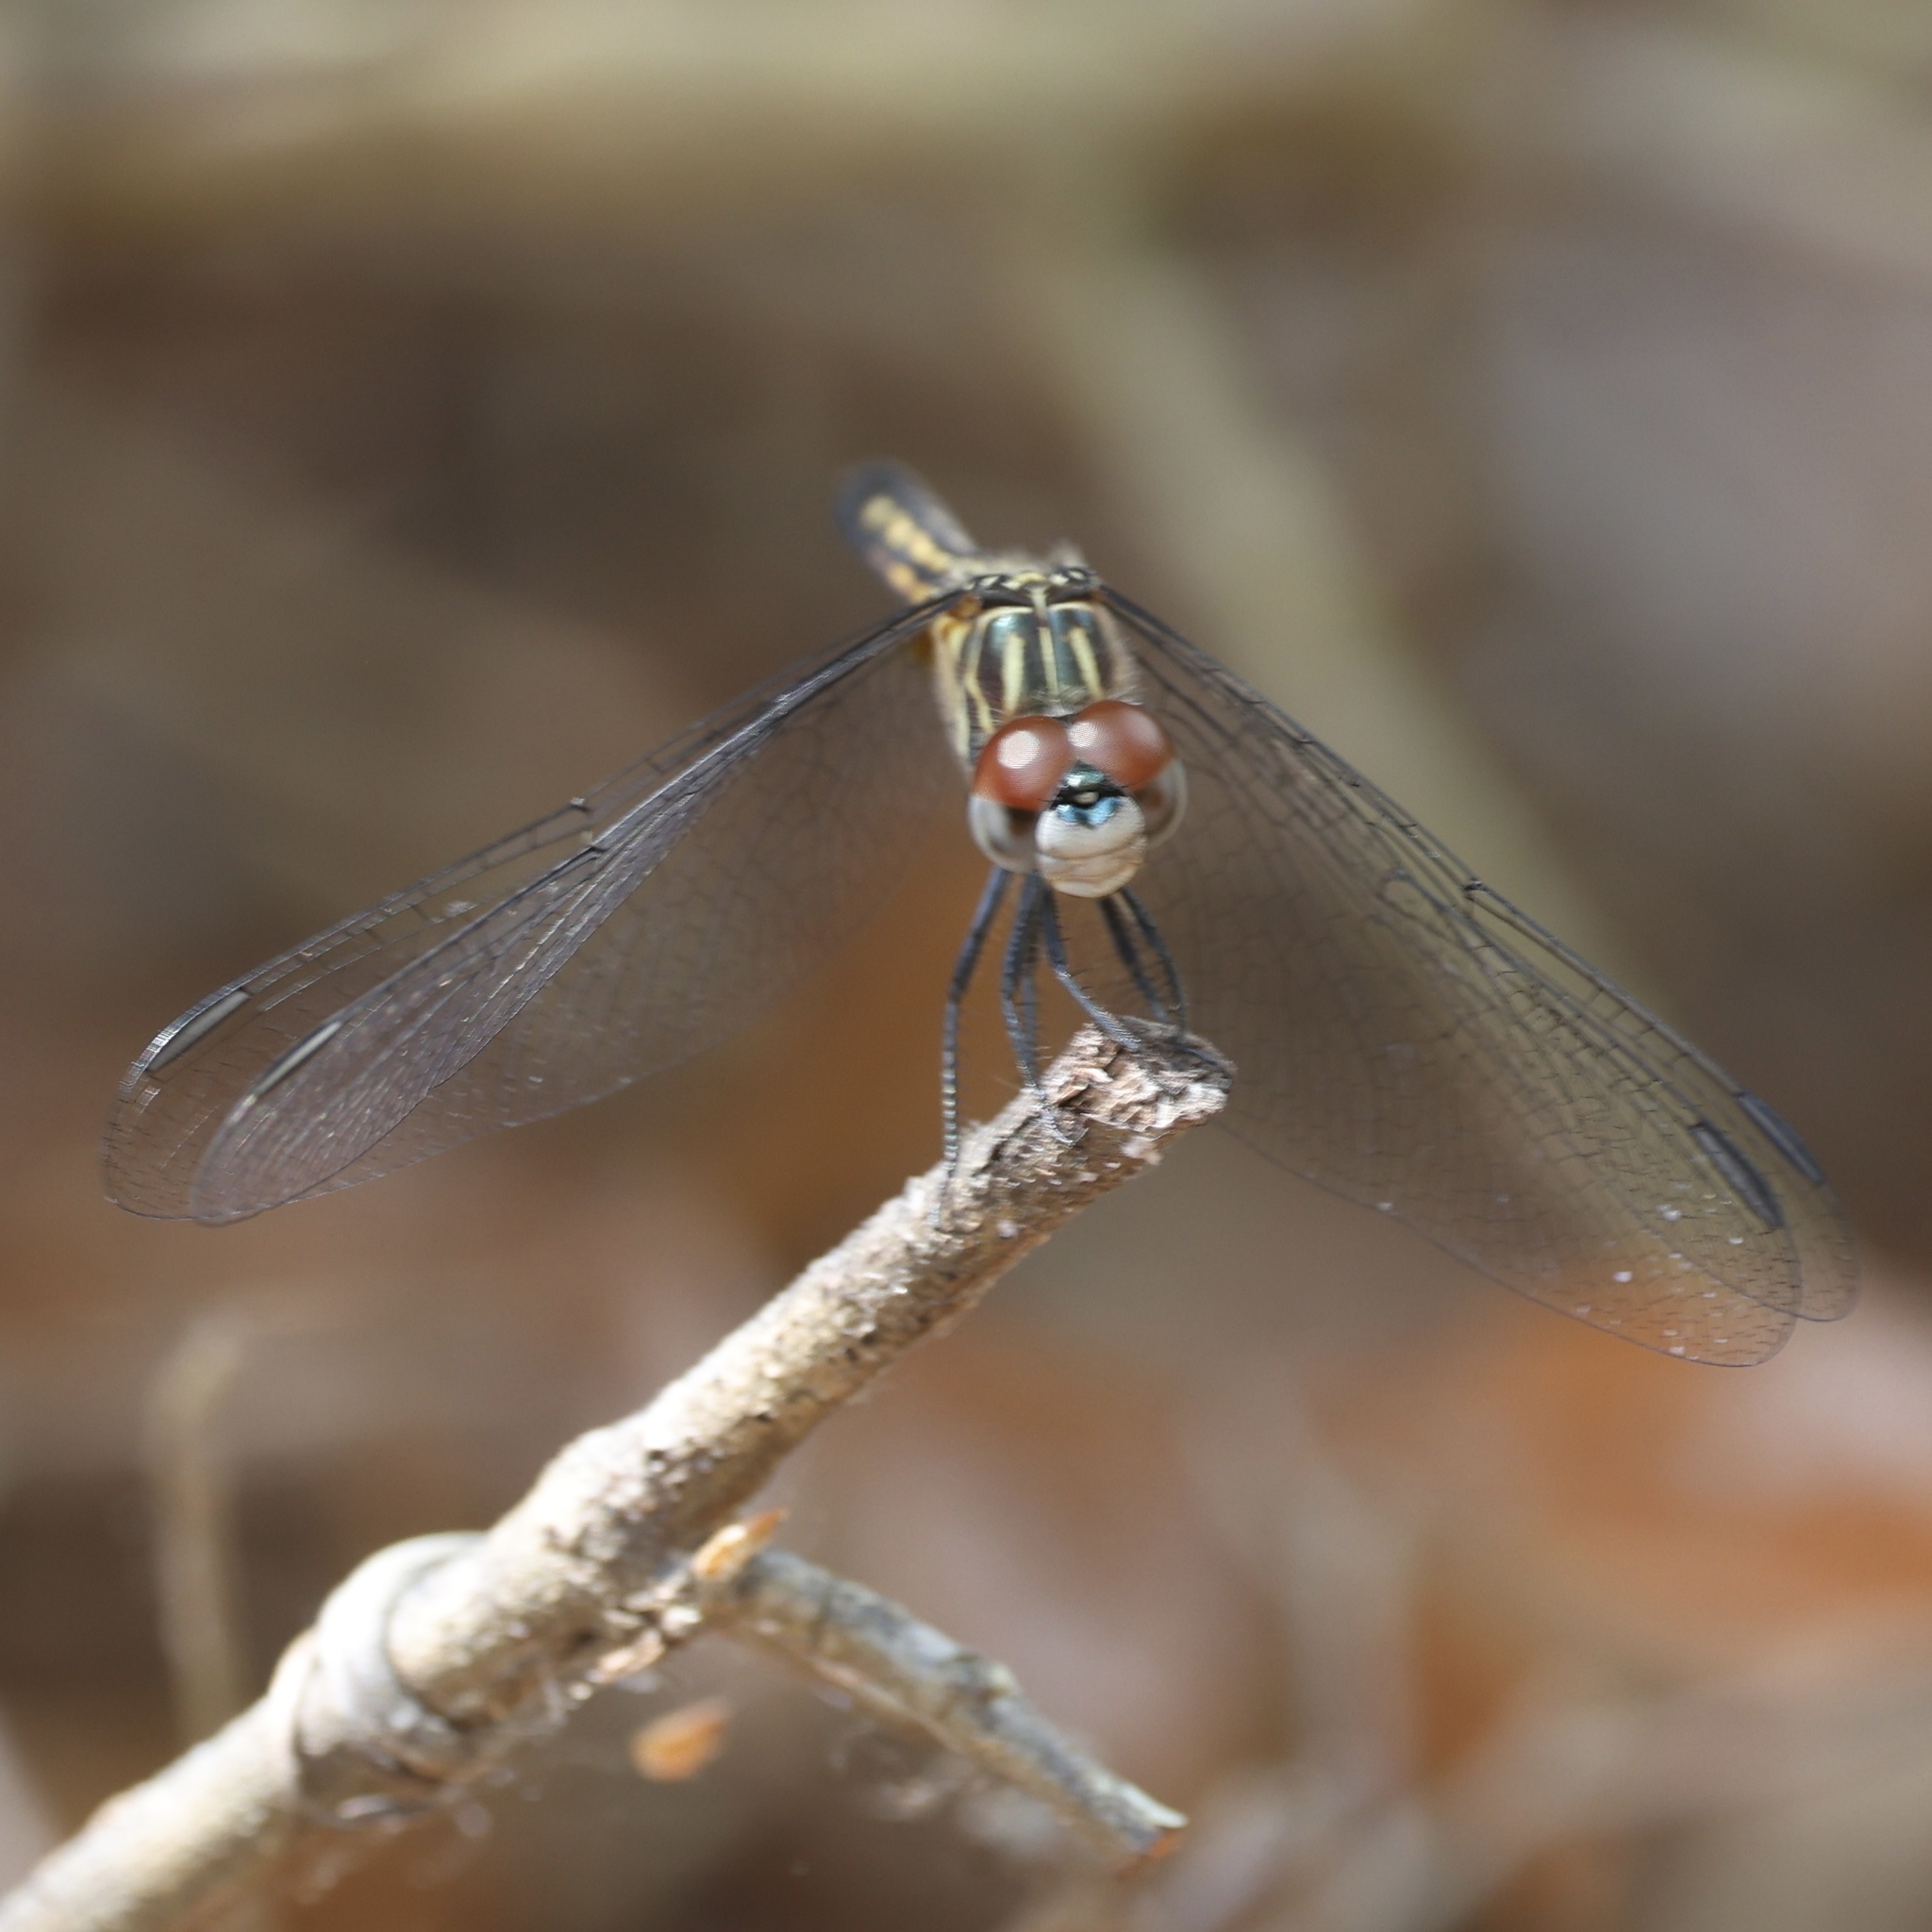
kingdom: Animalia
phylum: Arthropoda
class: Insecta
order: Odonata
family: Libellulidae
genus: Pachydiplax
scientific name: Pachydiplax longipennis
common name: Blue dasher
